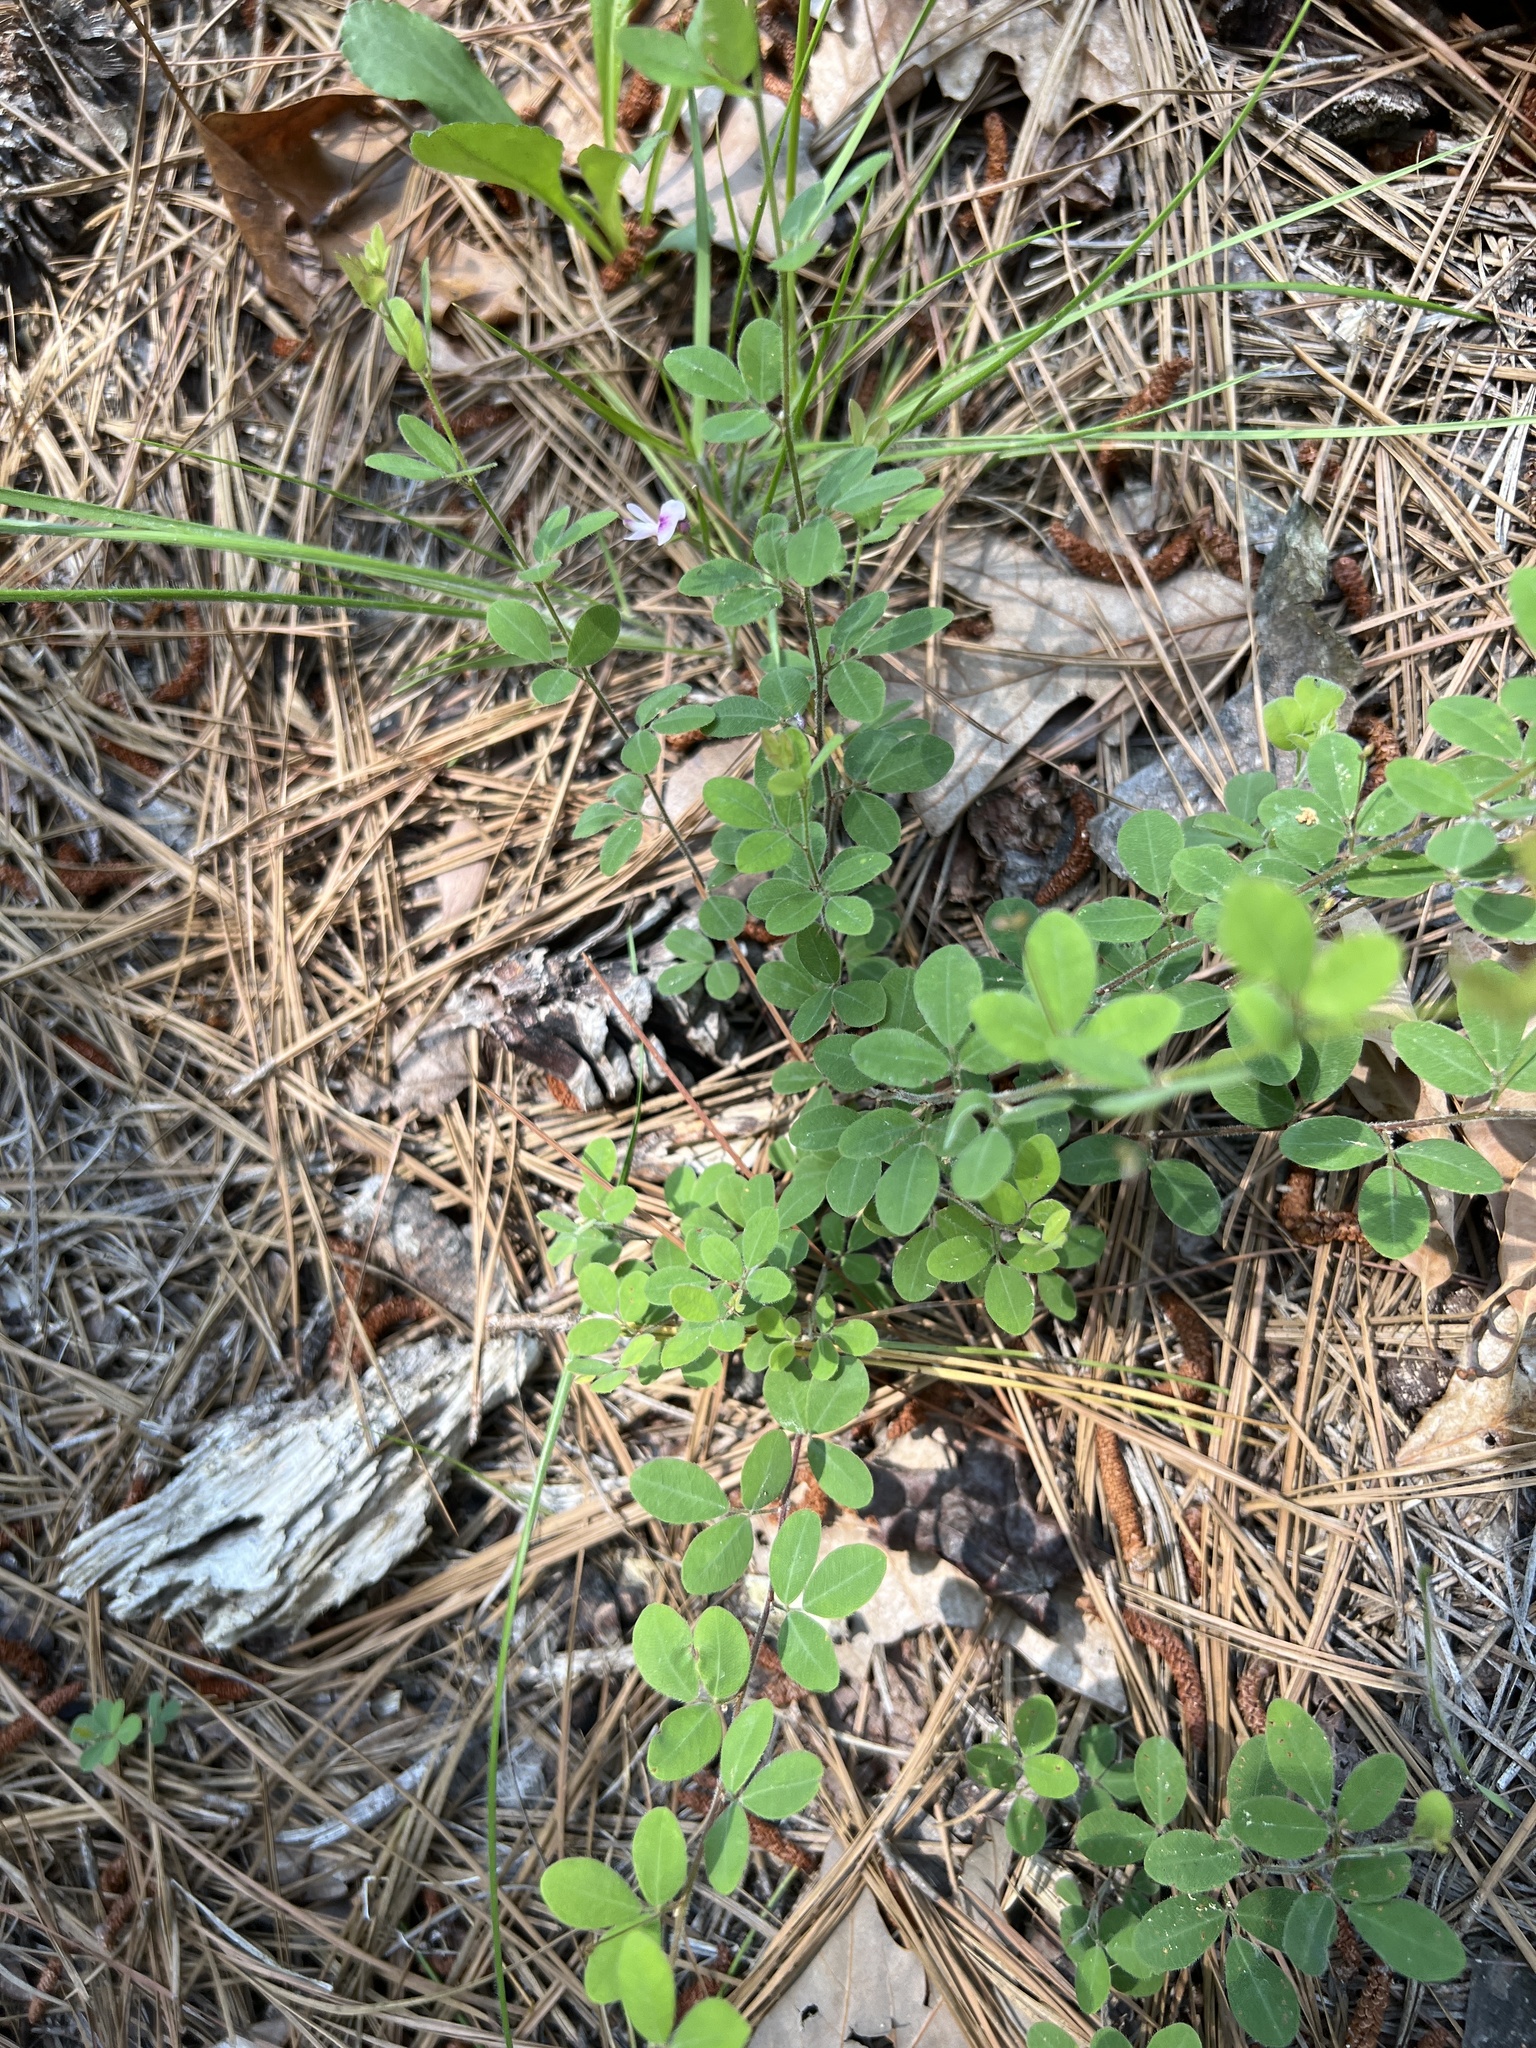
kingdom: Plantae
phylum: Tracheophyta
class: Magnoliopsida
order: Fabales
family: Fabaceae
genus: Lespedeza
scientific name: Lespedeza procumbens
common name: Downy trailing bush-clover
